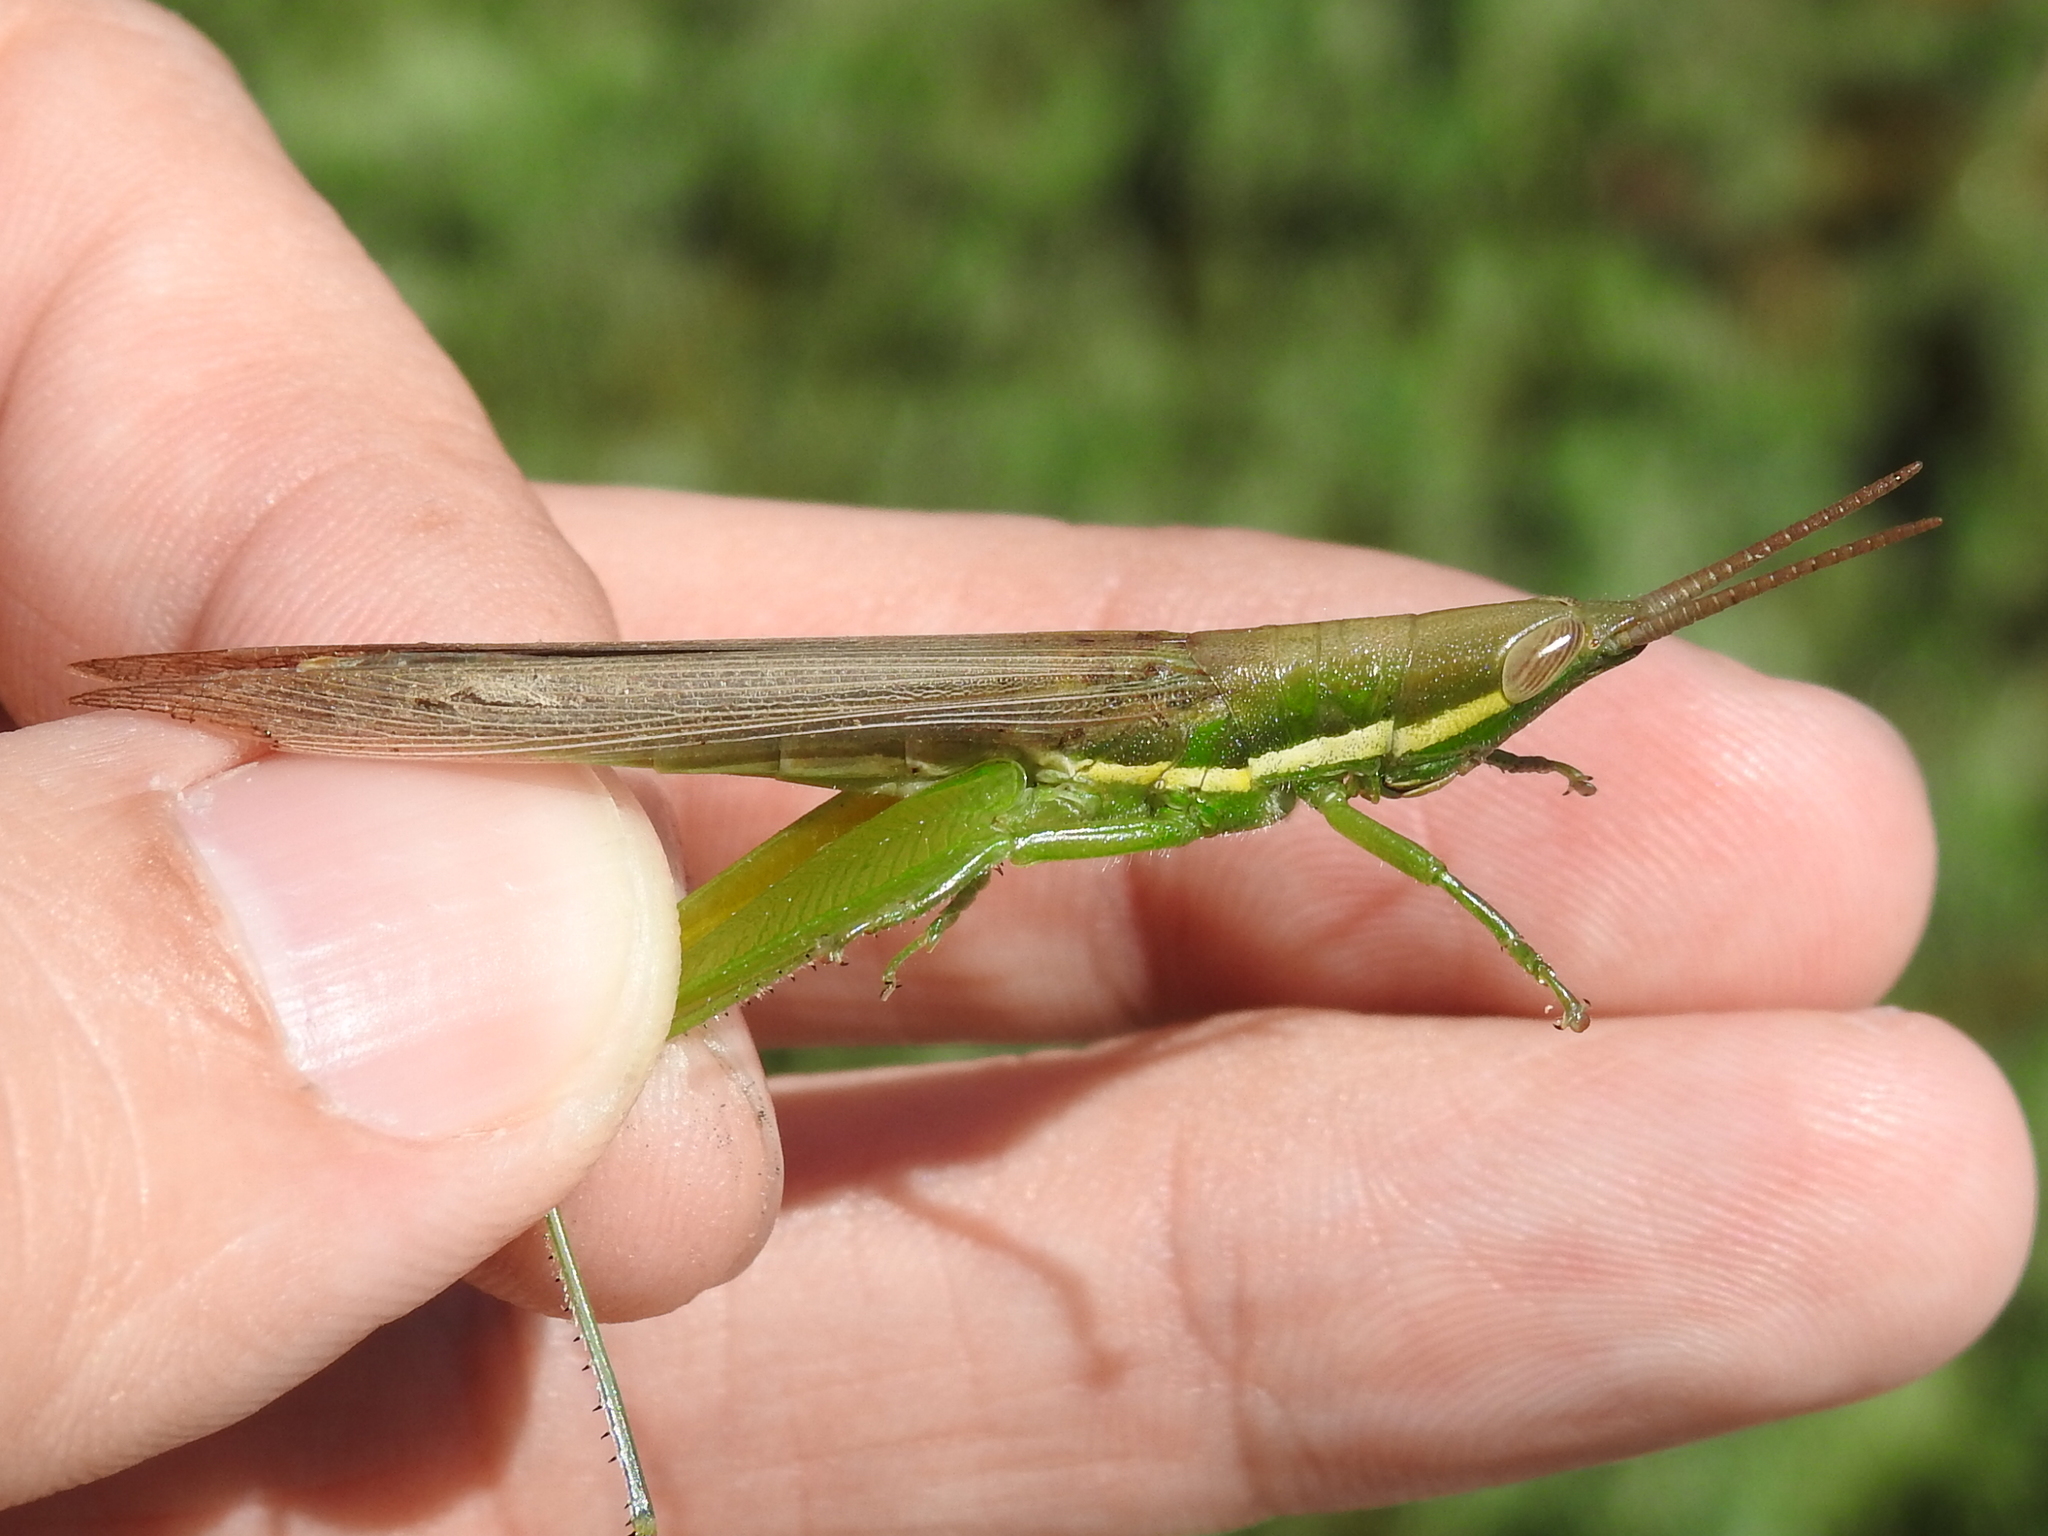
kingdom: Animalia
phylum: Arthropoda
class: Insecta
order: Orthoptera
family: Acrididae
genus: Leptysma
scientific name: Leptysma marginicollis
